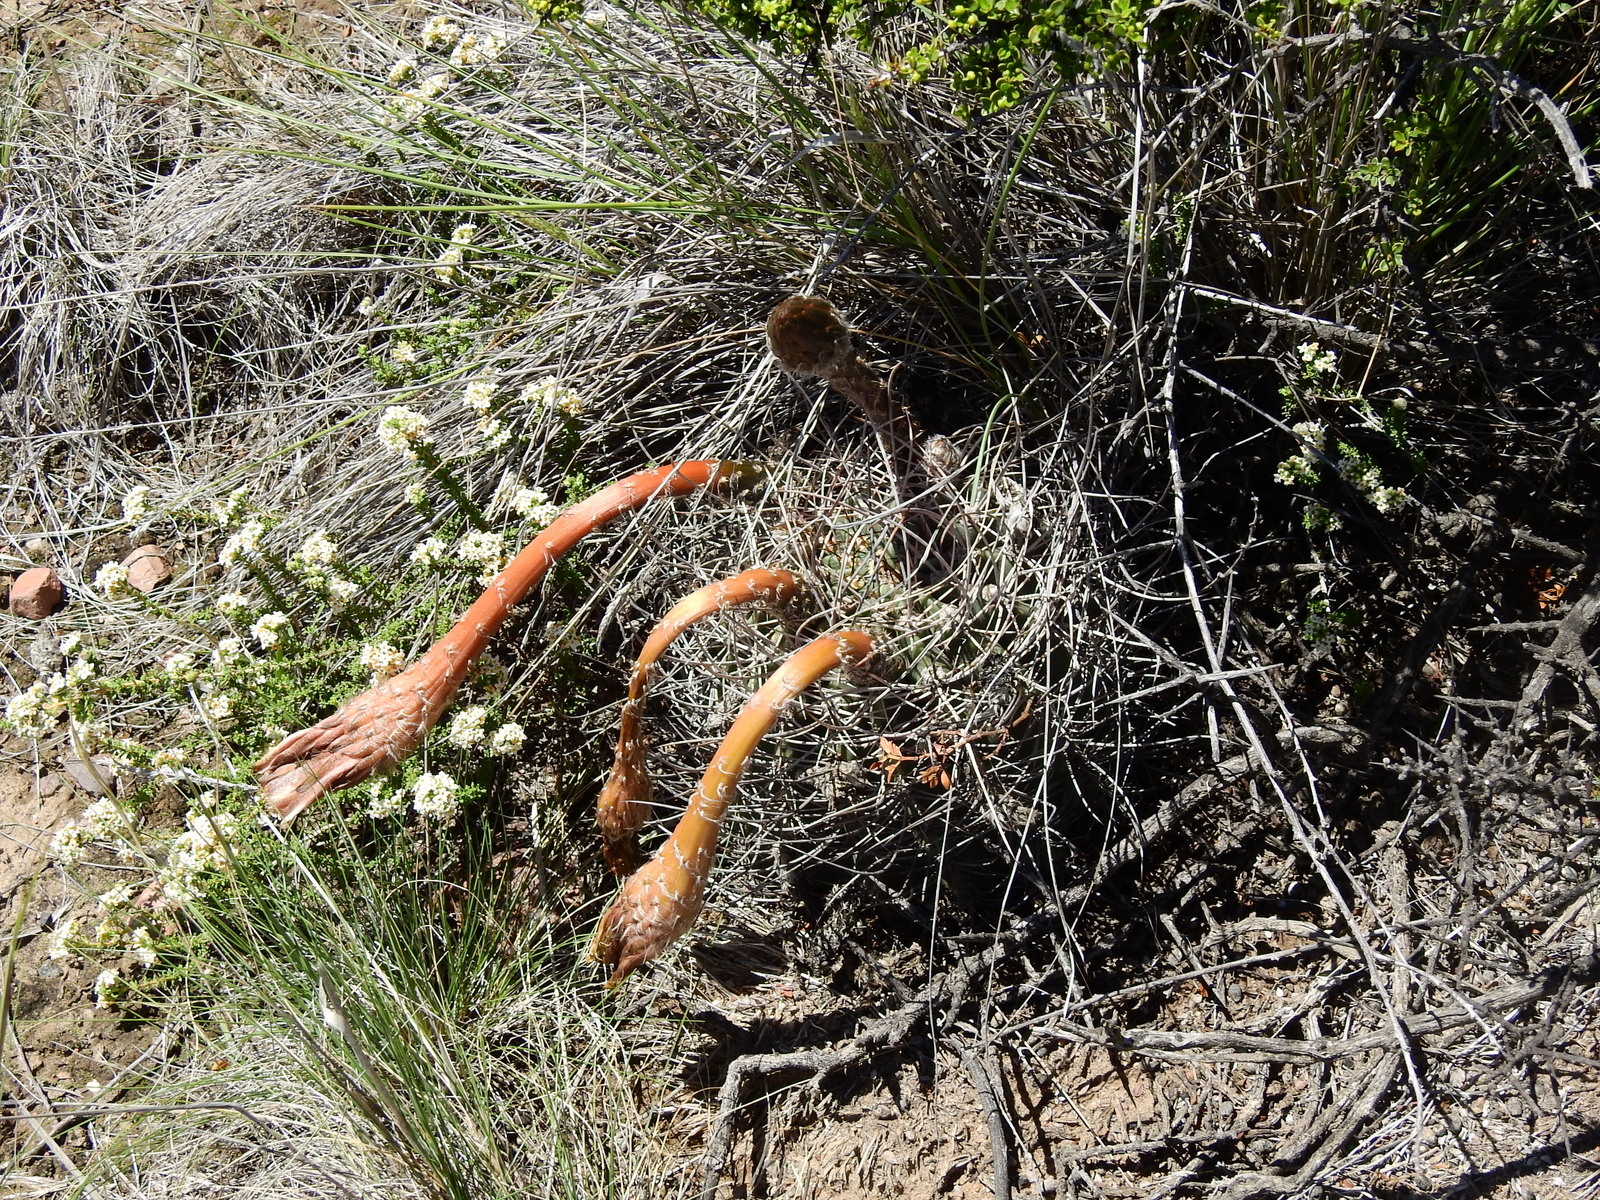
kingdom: Plantae
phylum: Tracheophyta
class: Magnoliopsida
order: Caryophyllales
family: Cactaceae
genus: Acanthocalycium
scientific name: Acanthocalycium leucanthum
